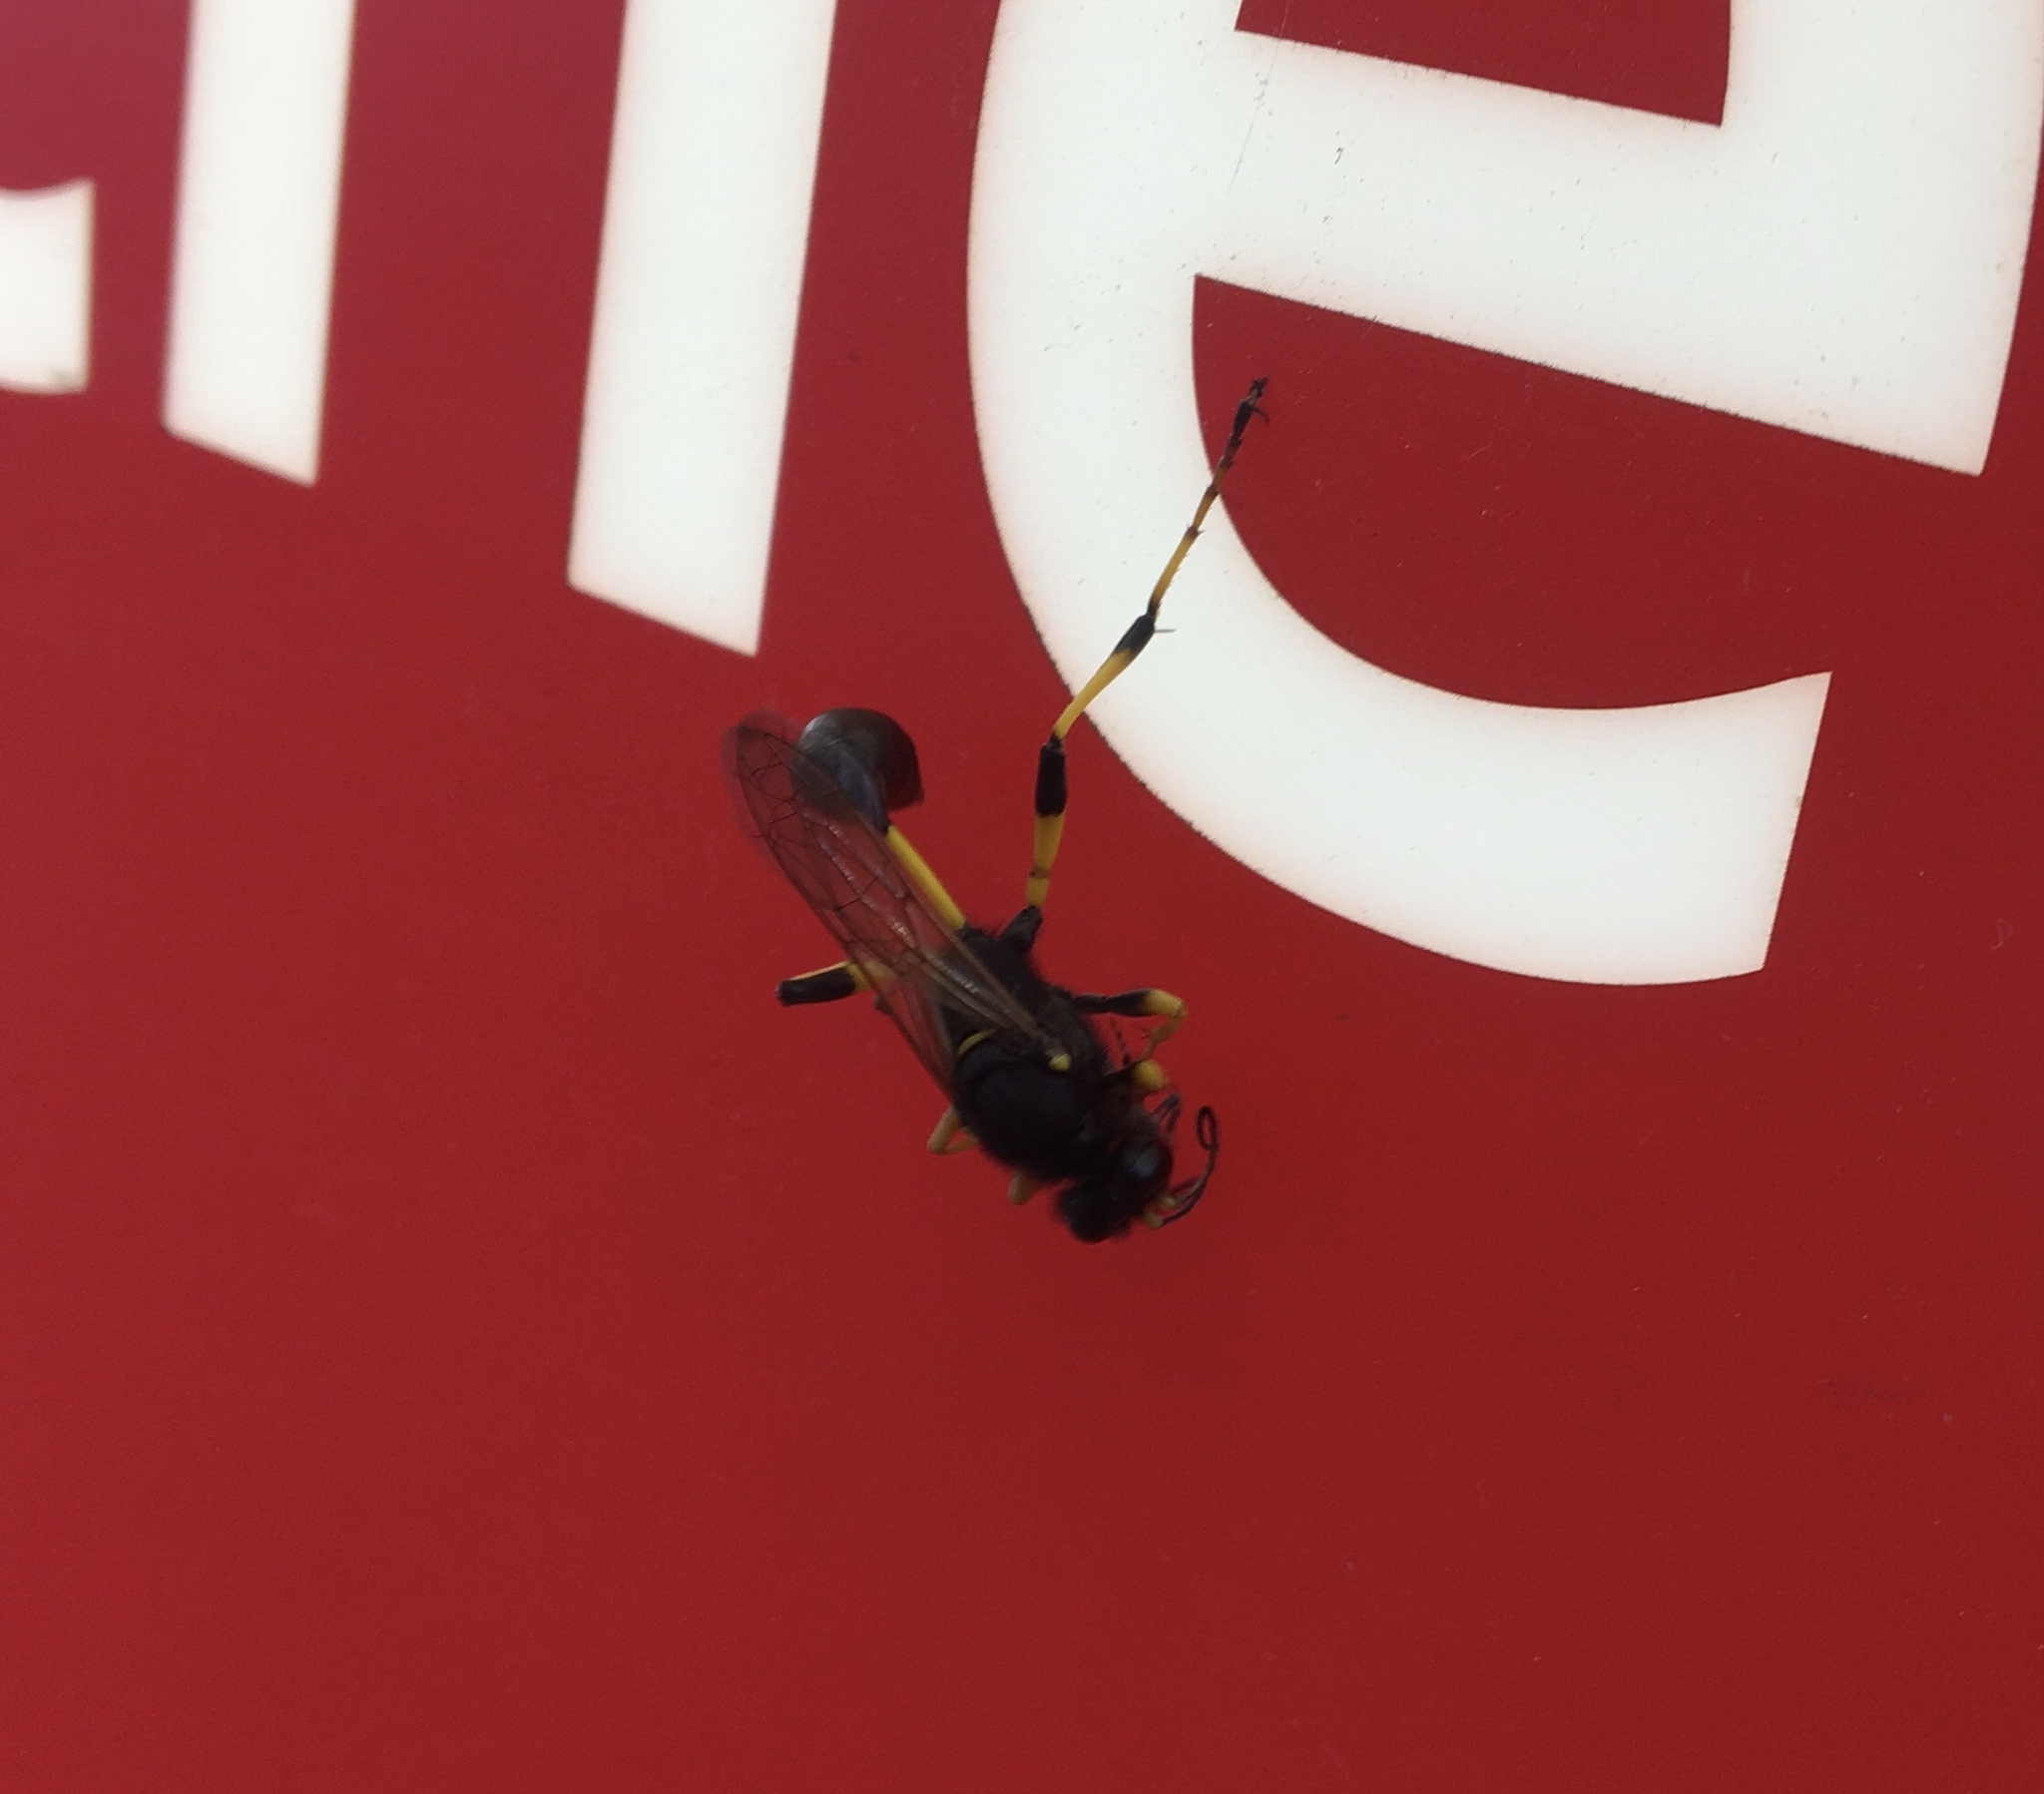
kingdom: Animalia
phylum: Arthropoda
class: Insecta
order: Hymenoptera
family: Sphecidae
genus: Sceliphron
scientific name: Sceliphron destillatorium
